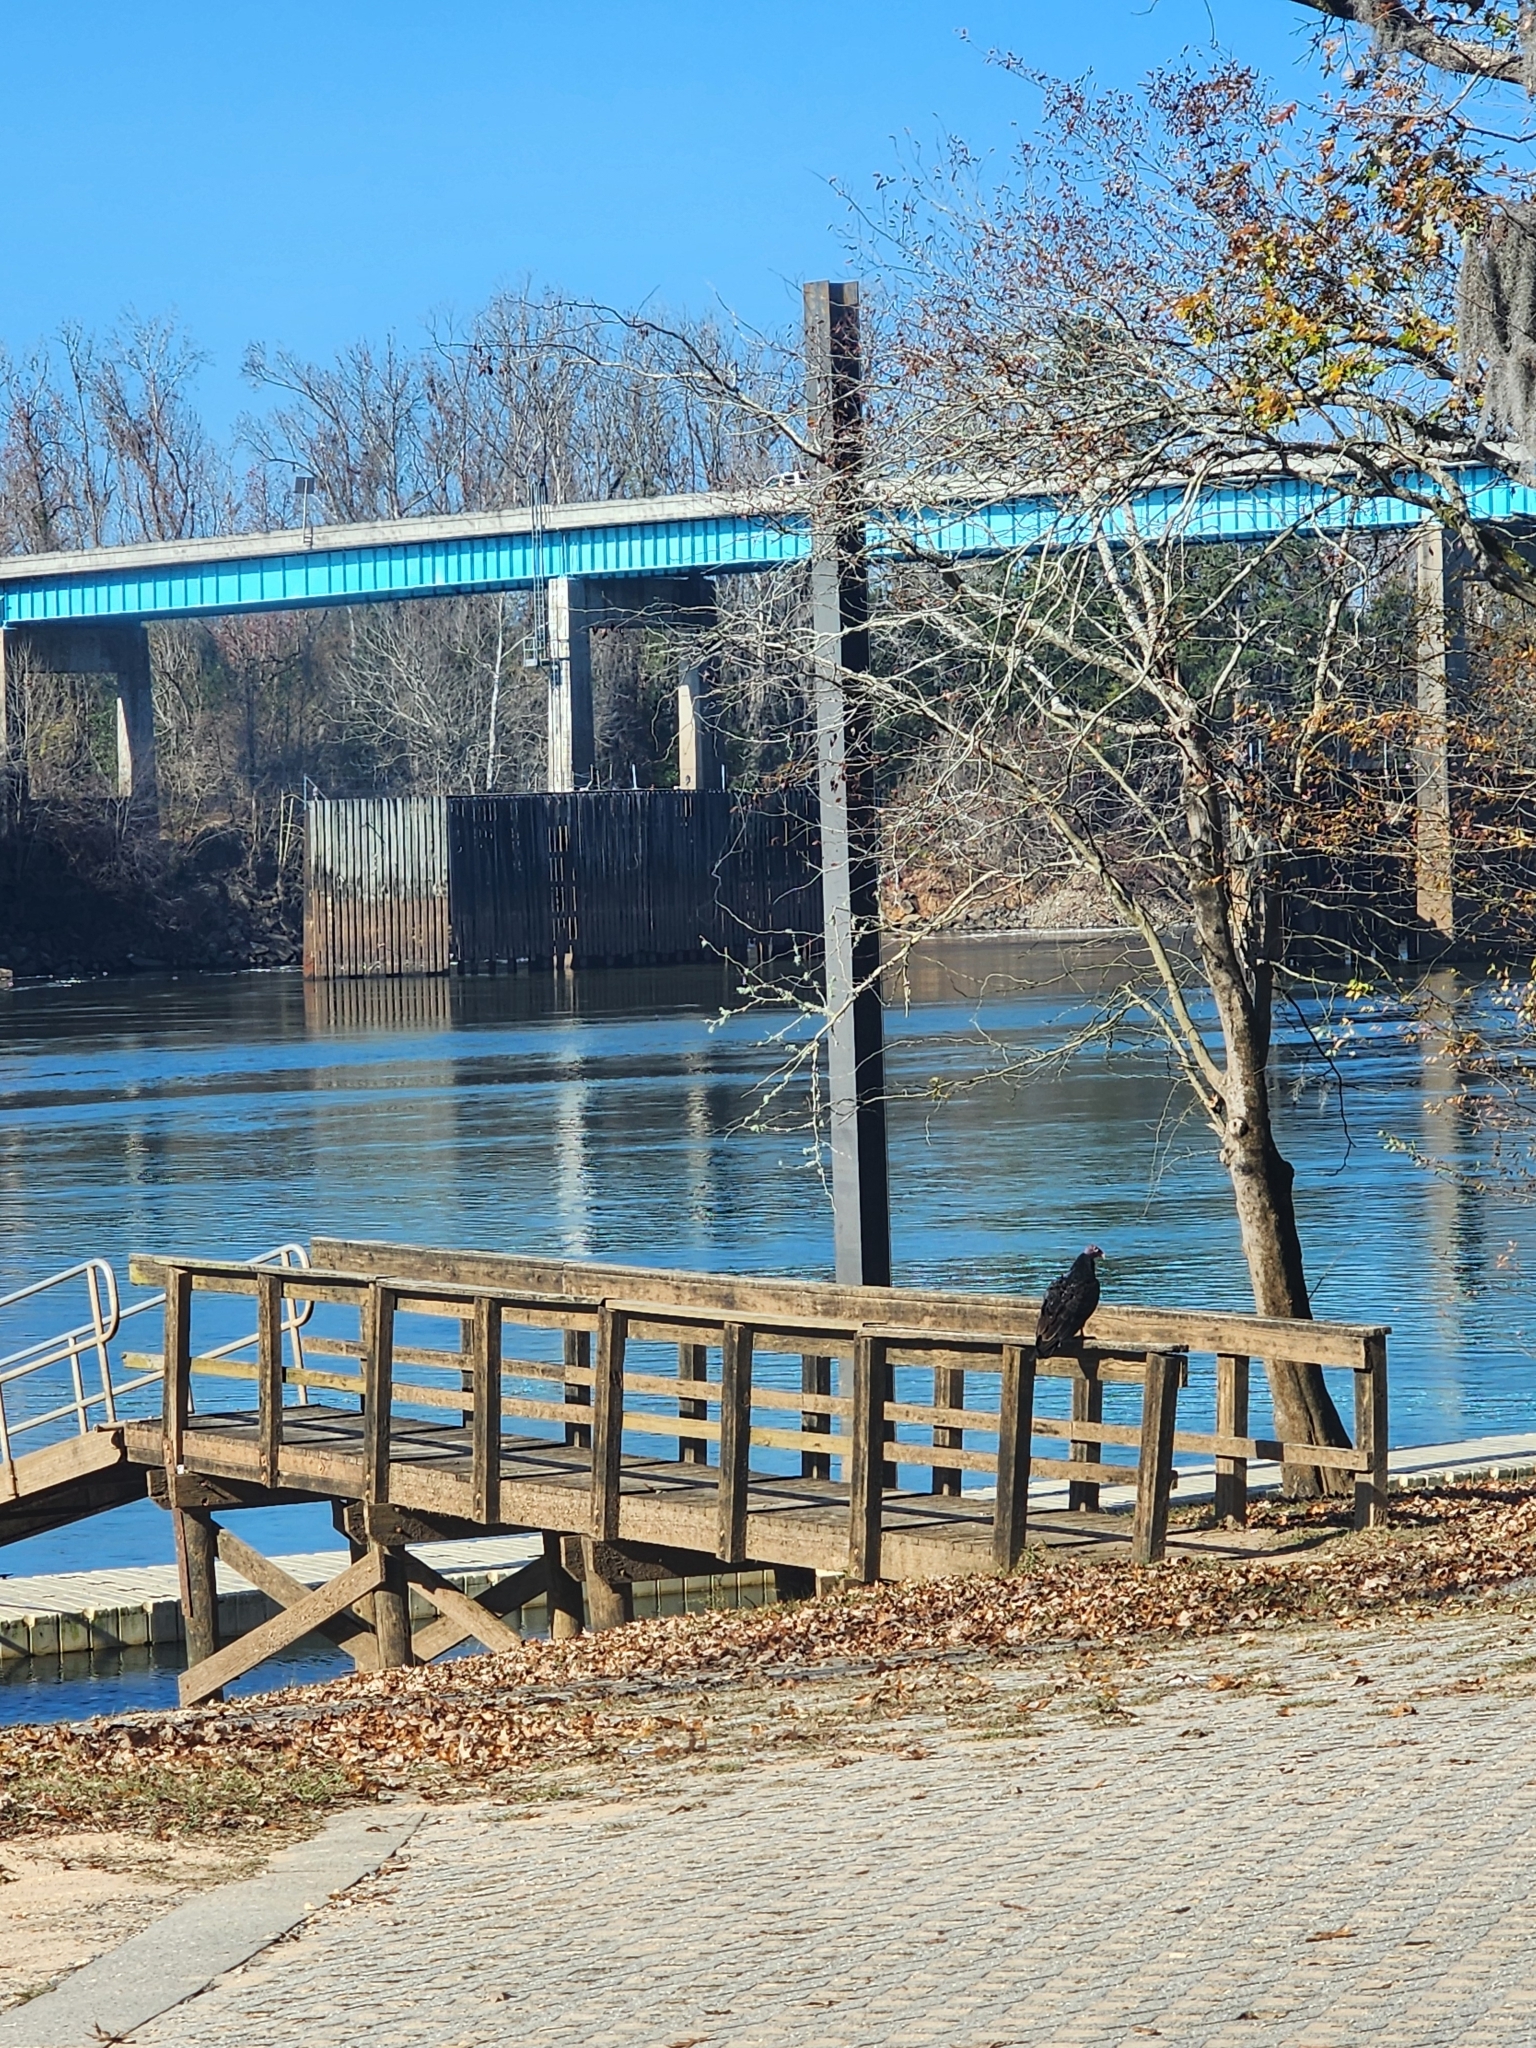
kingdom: Animalia
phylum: Chordata
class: Aves
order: Accipitriformes
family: Cathartidae
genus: Cathartes
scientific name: Cathartes aura
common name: Turkey vulture
